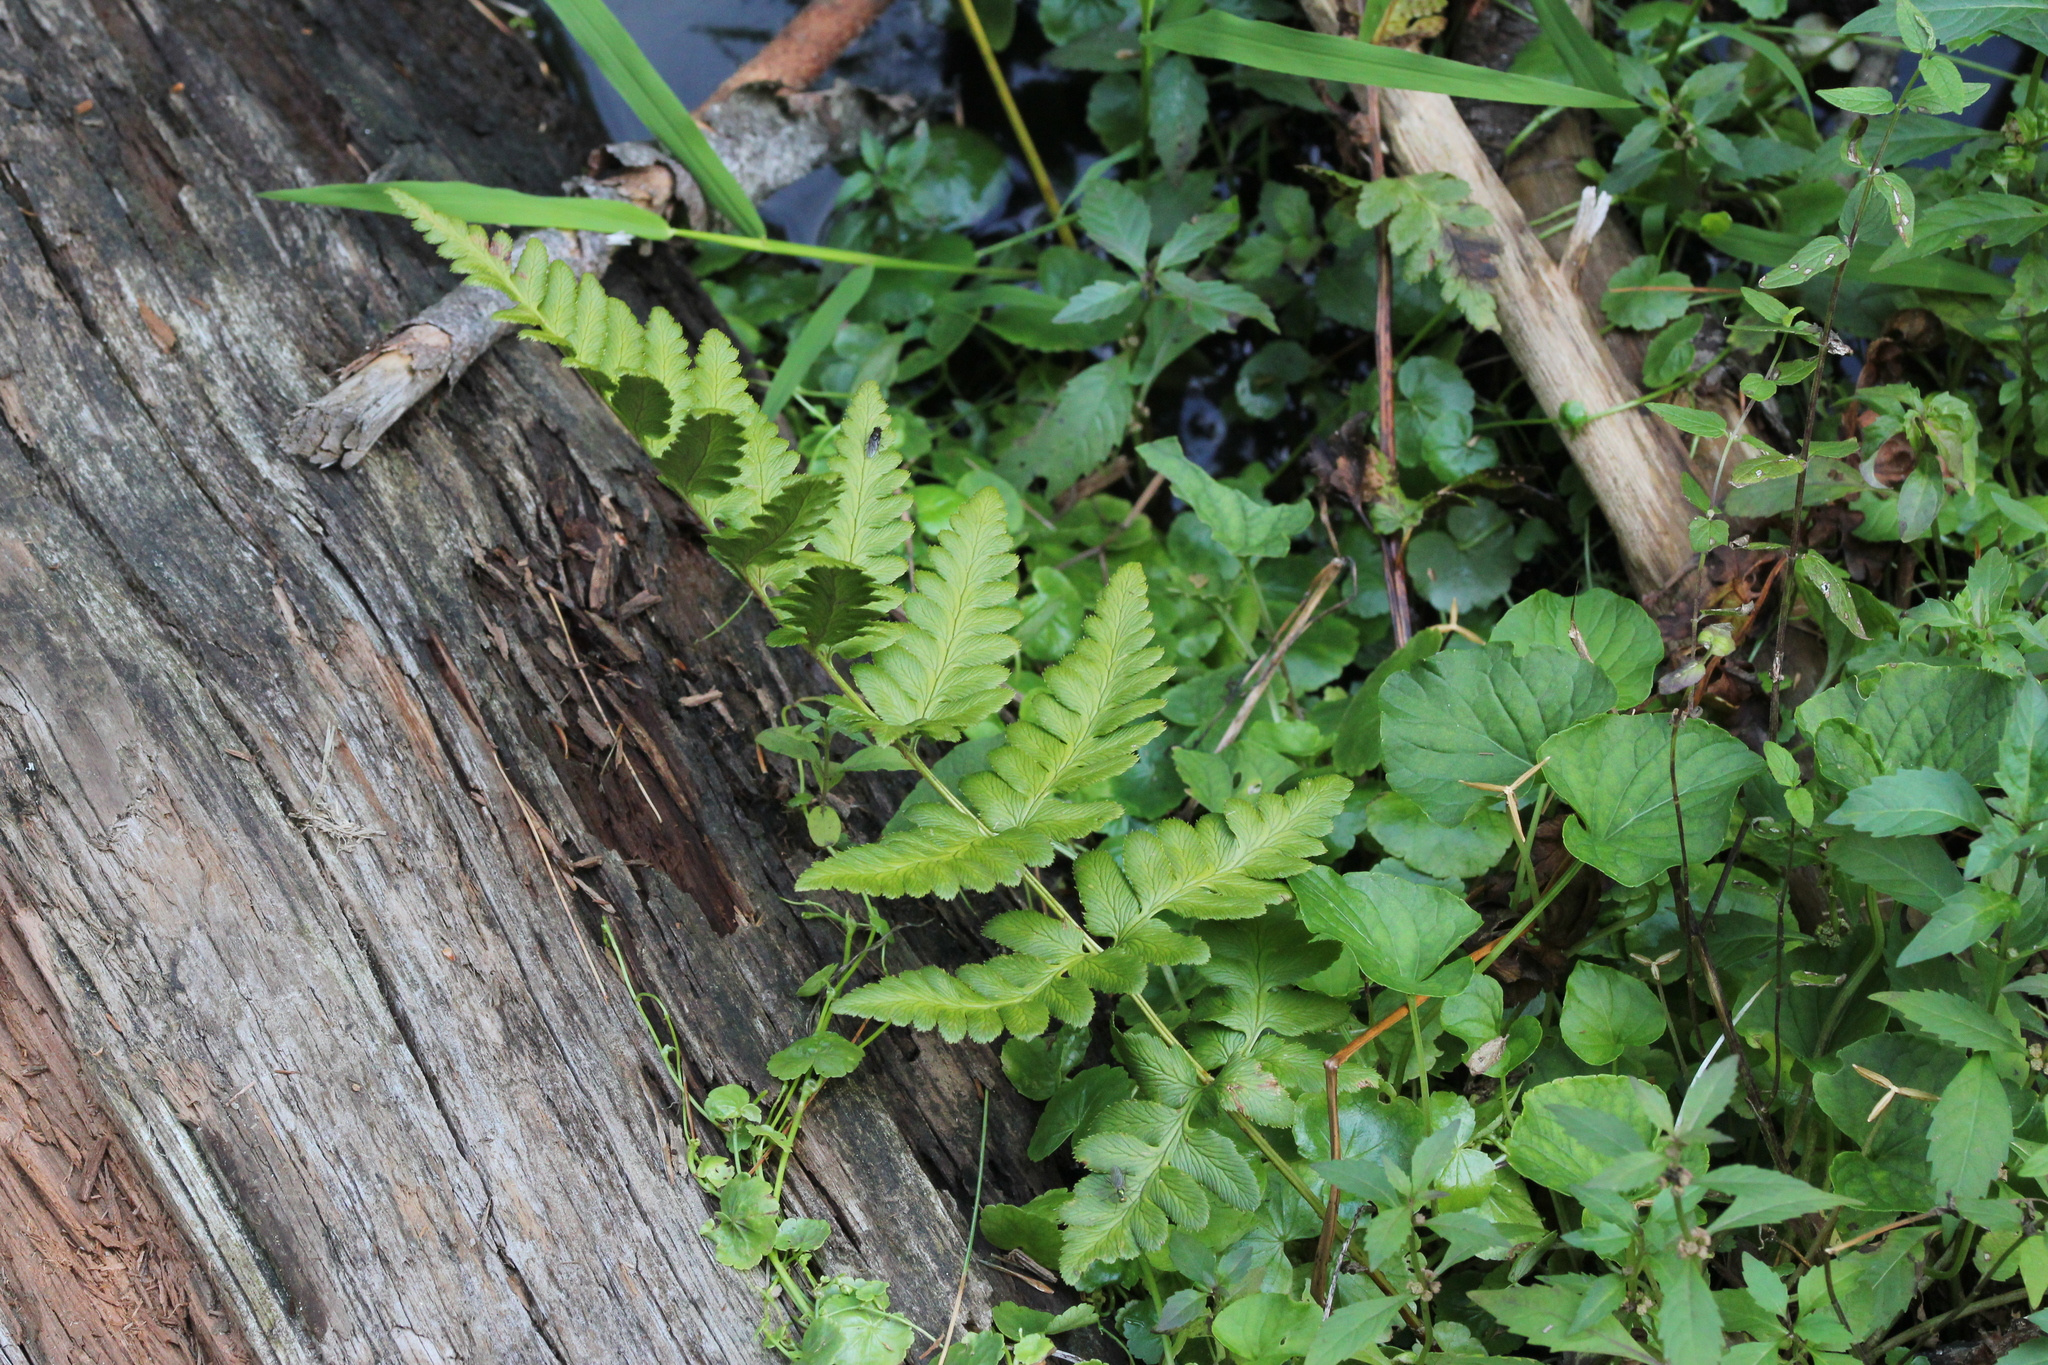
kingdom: Plantae
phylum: Tracheophyta
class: Polypodiopsida
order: Polypodiales
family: Dryopteridaceae
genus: Dryopteris
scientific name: Dryopteris cristata
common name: Crested wood fern
